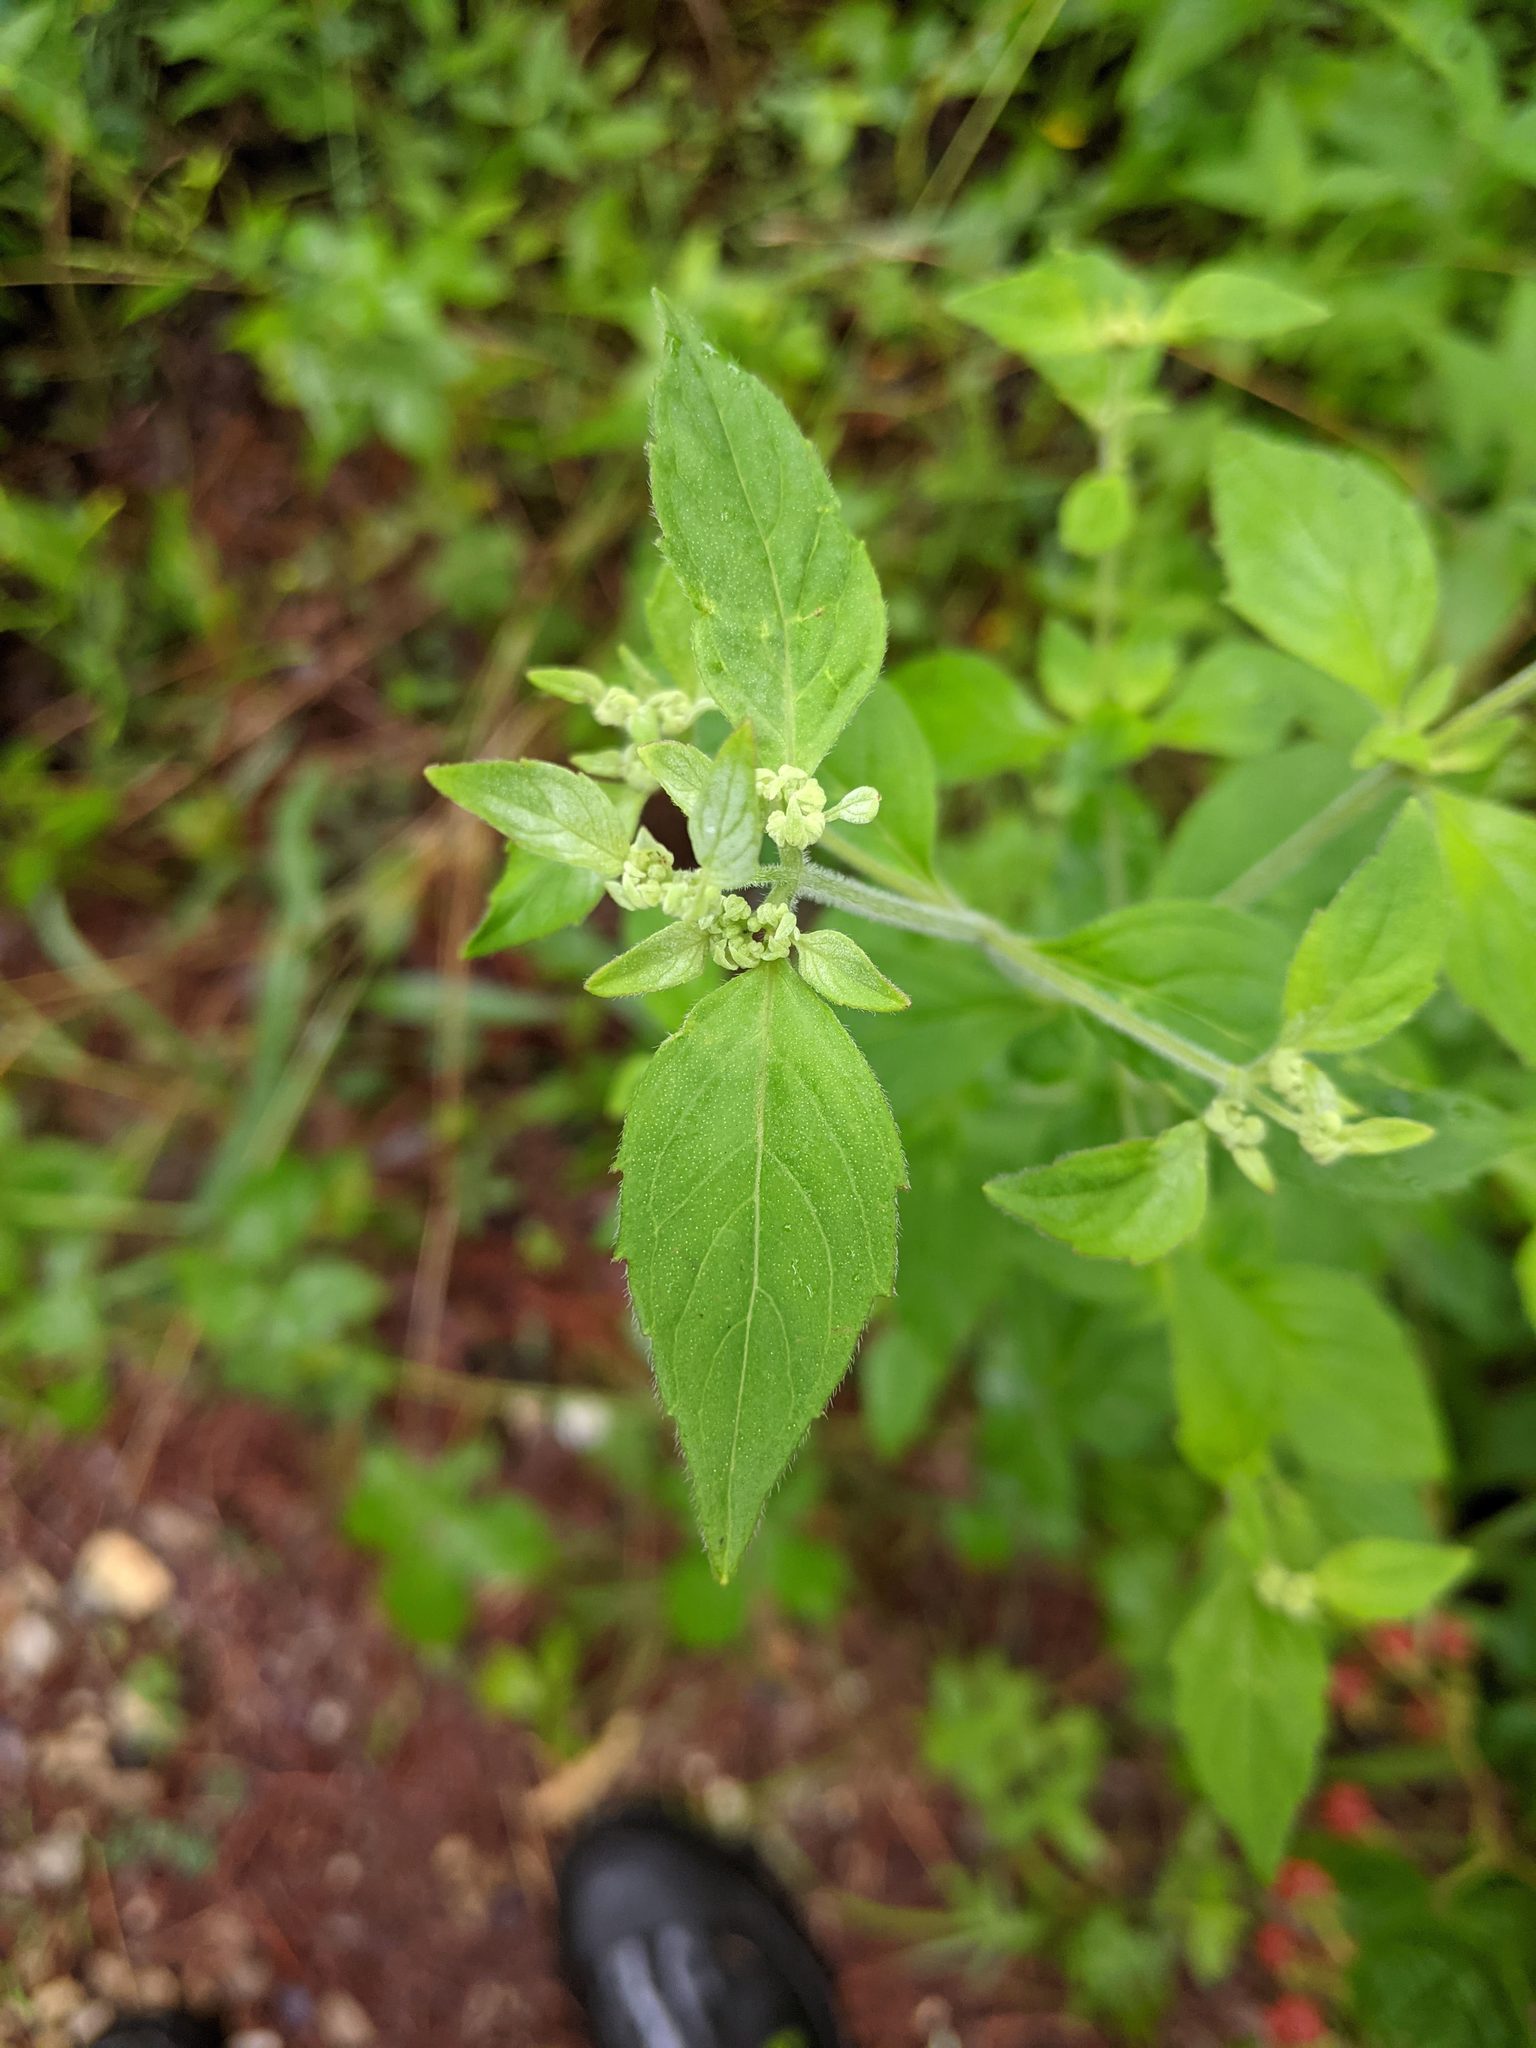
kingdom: Plantae
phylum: Tracheophyta
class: Magnoliopsida
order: Lamiales
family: Lamiaceae
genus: Pycnanthemum
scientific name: Pycnanthemum albescens
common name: White-leaf mountain-mint
